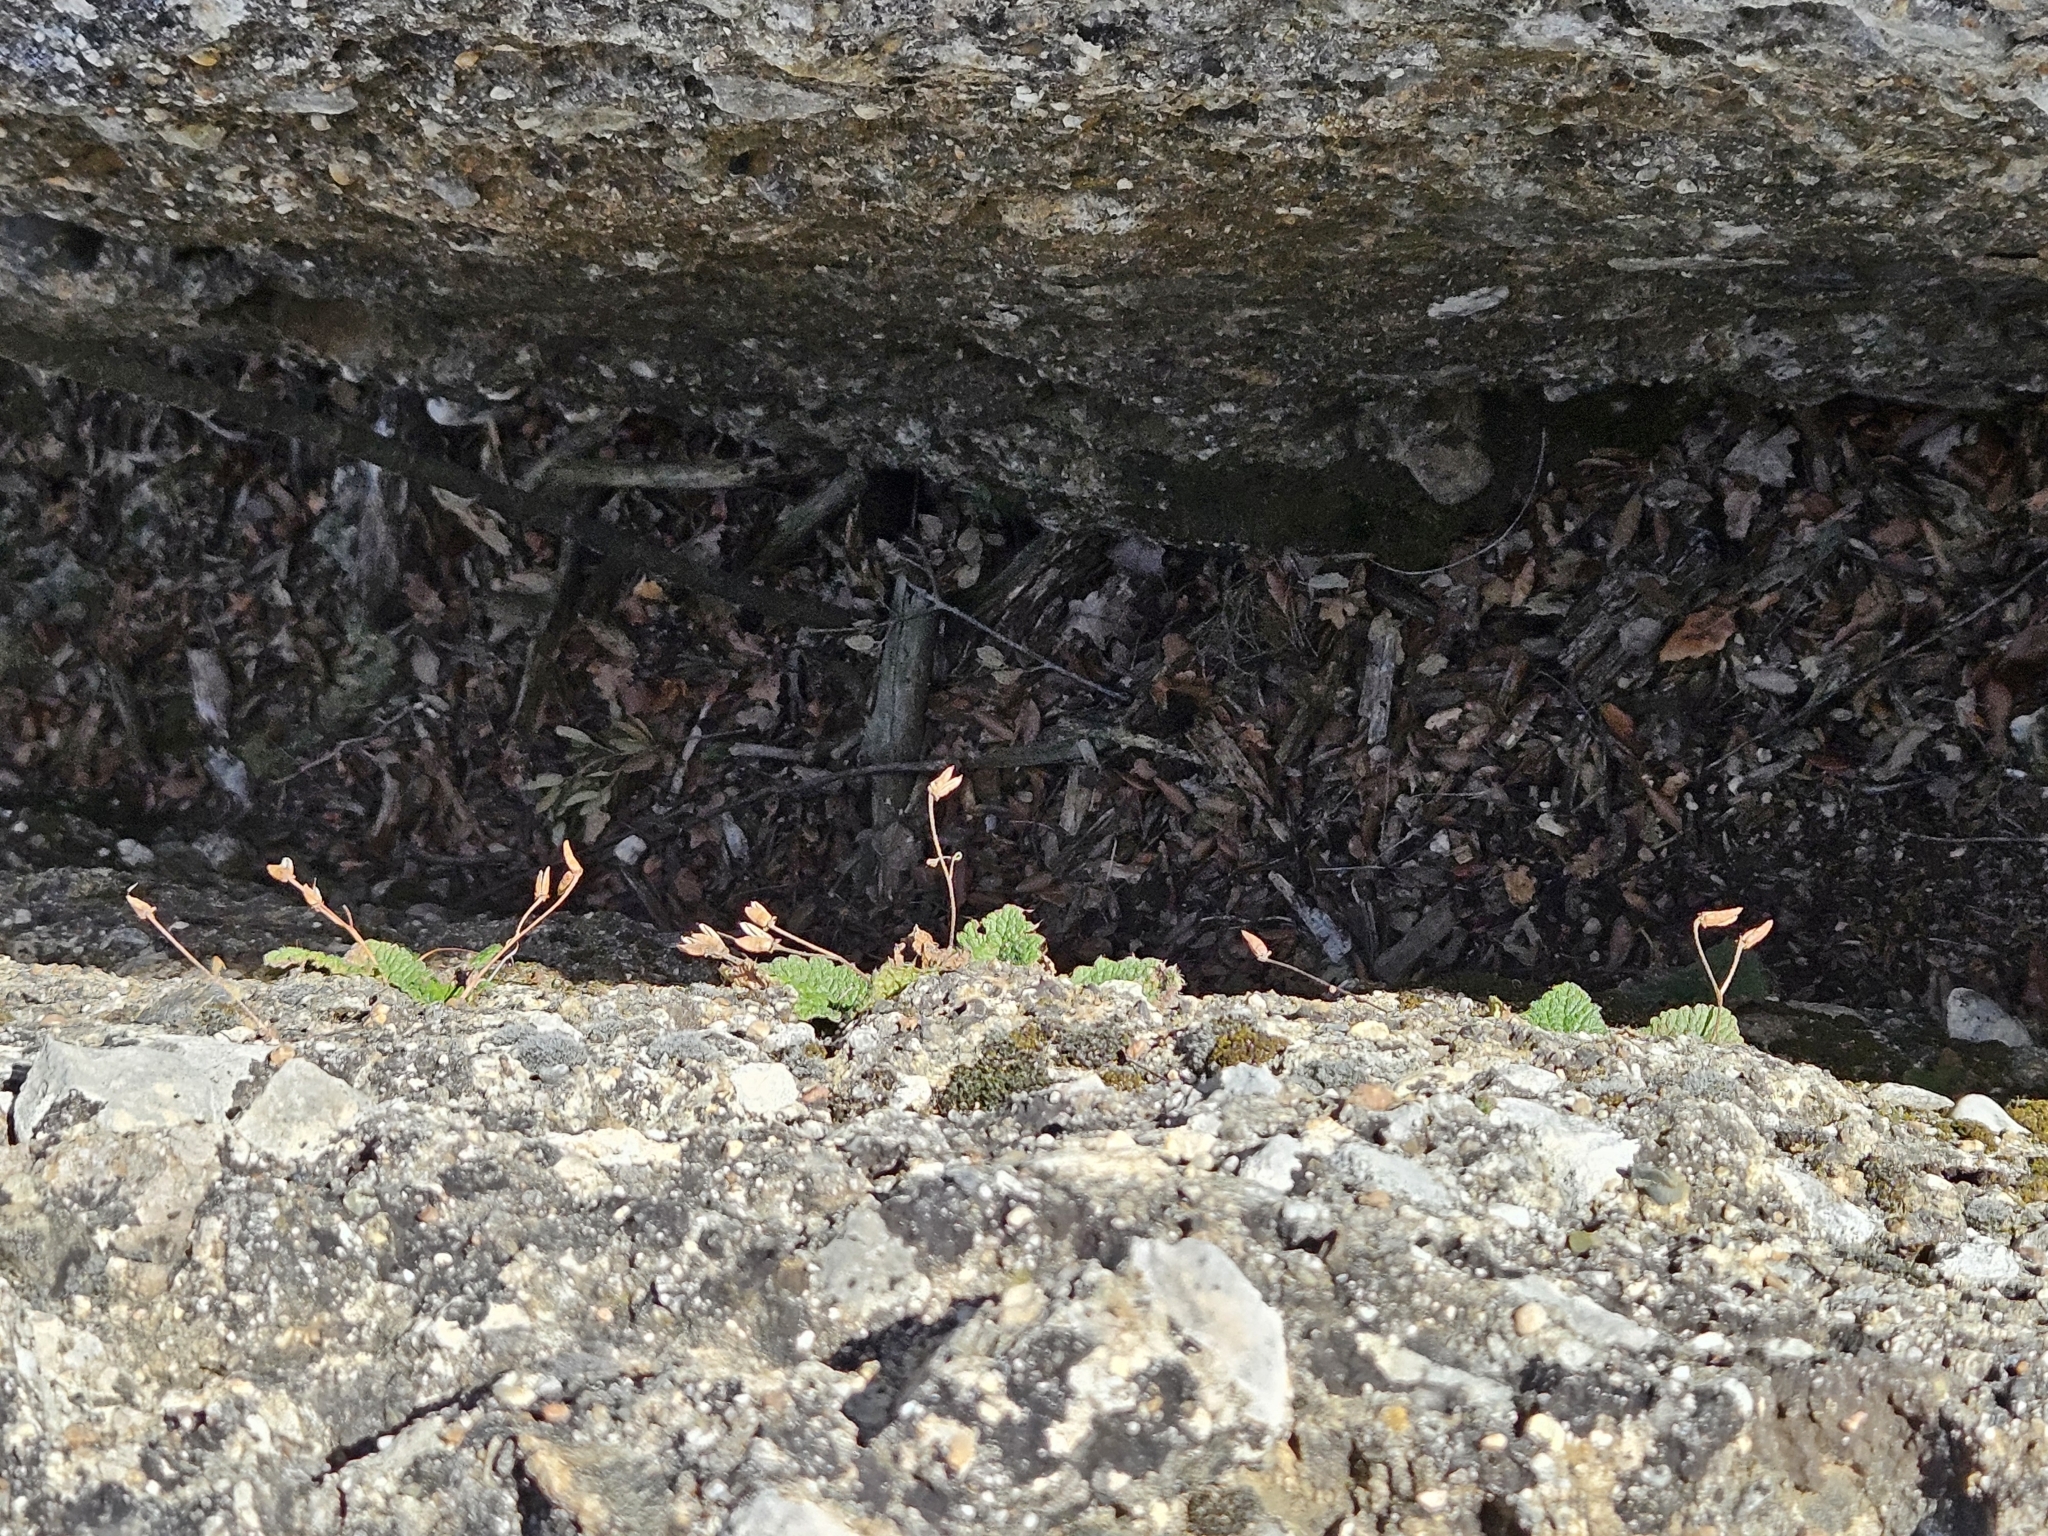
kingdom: Plantae
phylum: Tracheophyta
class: Magnoliopsida
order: Lamiales
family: Gesneriaceae
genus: Ramonda
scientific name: Ramonda myconi
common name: Pyrenean-violet
